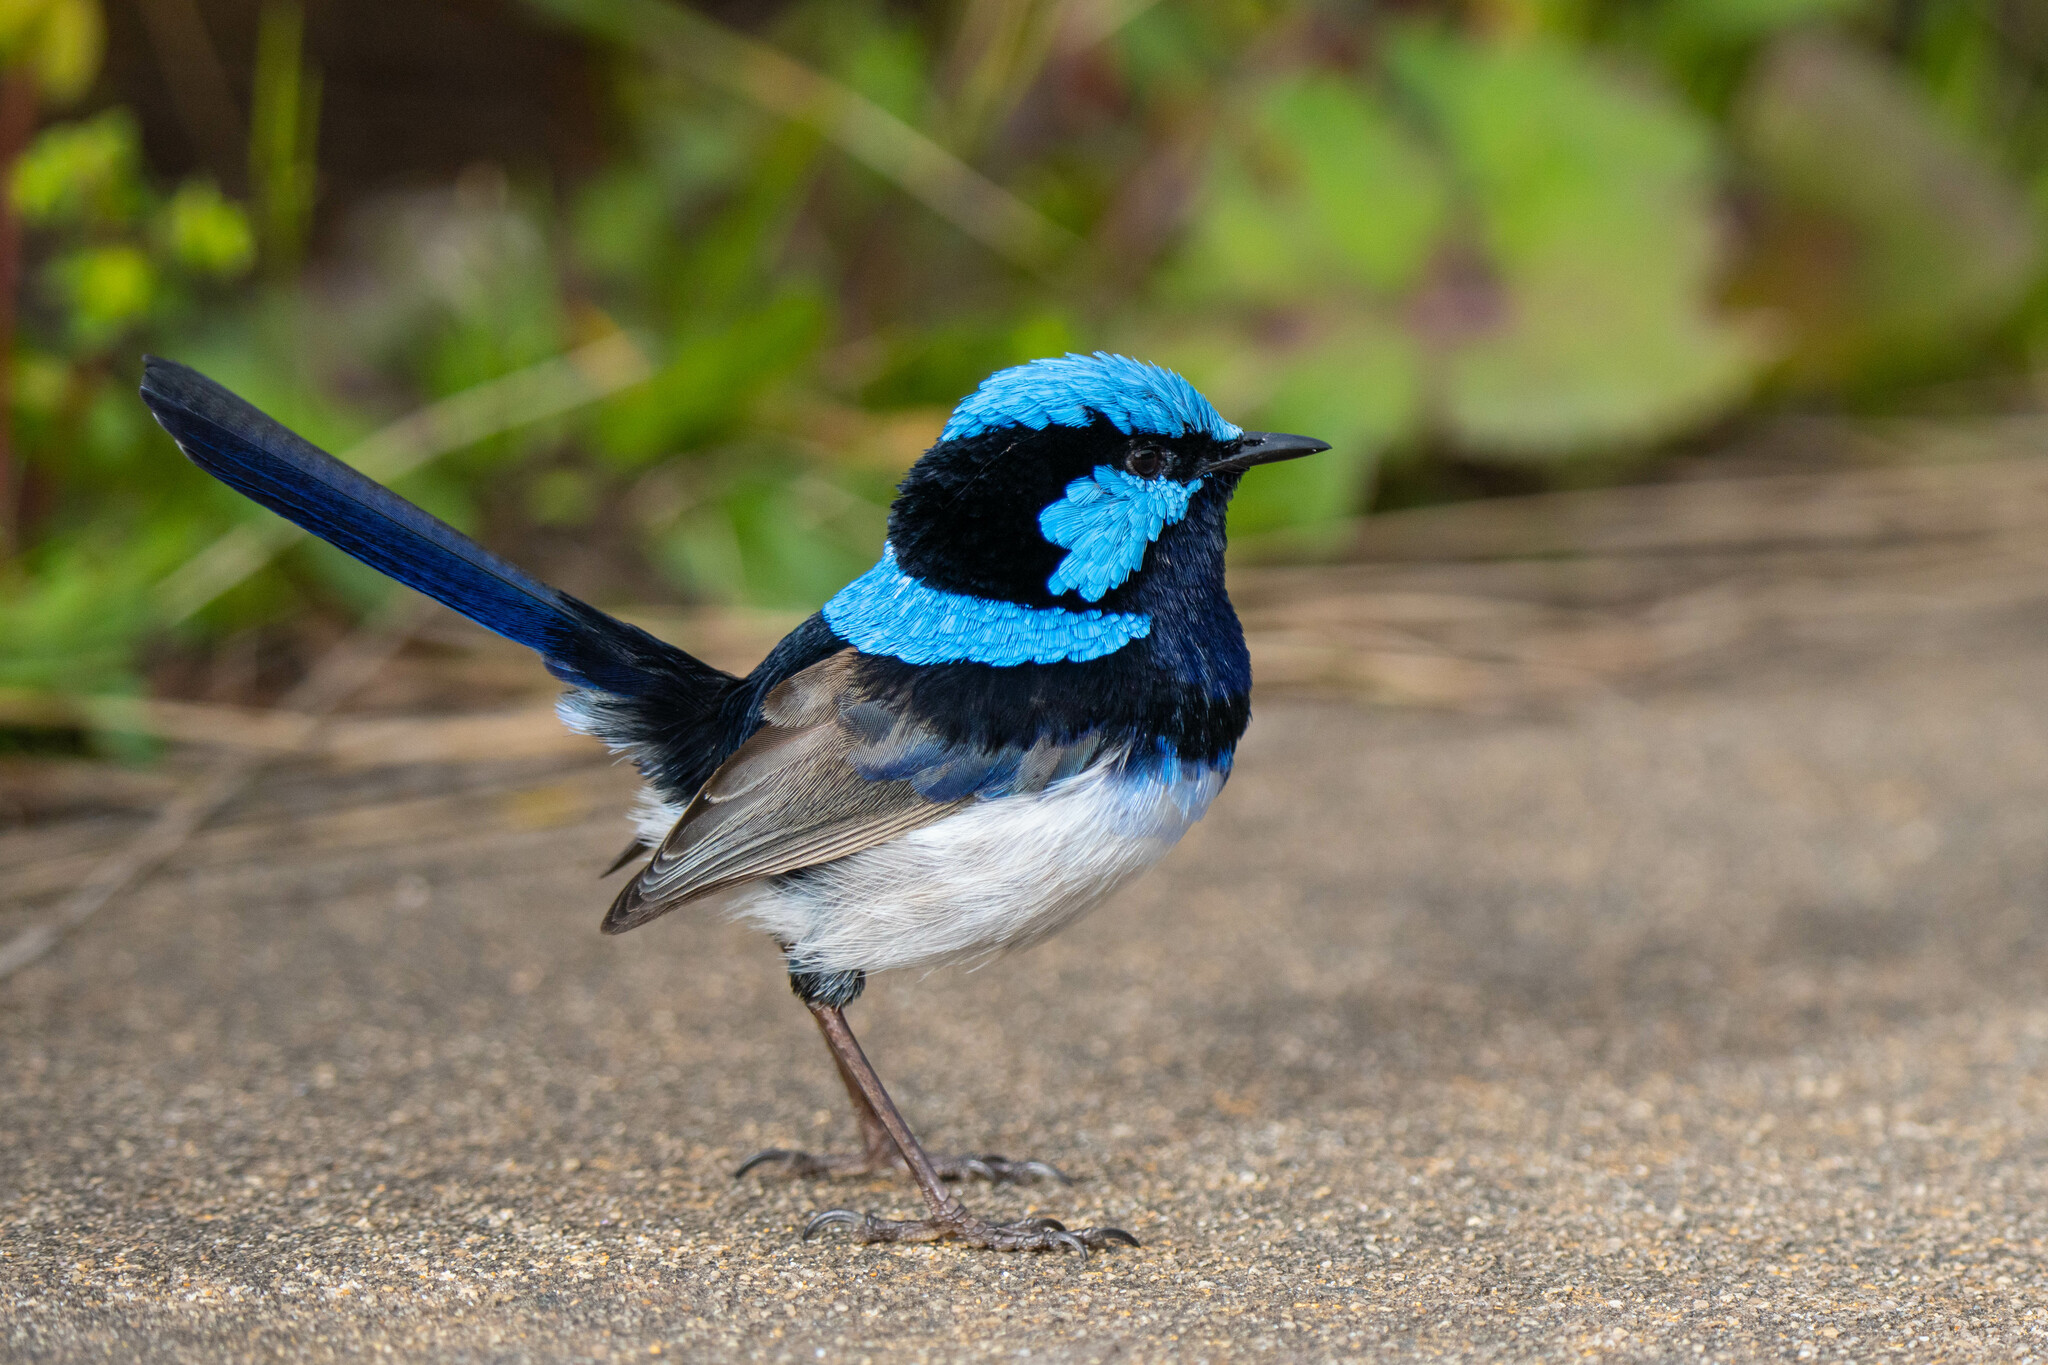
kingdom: Animalia
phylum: Chordata
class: Aves
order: Passeriformes
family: Maluridae
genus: Malurus
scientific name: Malurus cyaneus
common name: Superb fairywren
